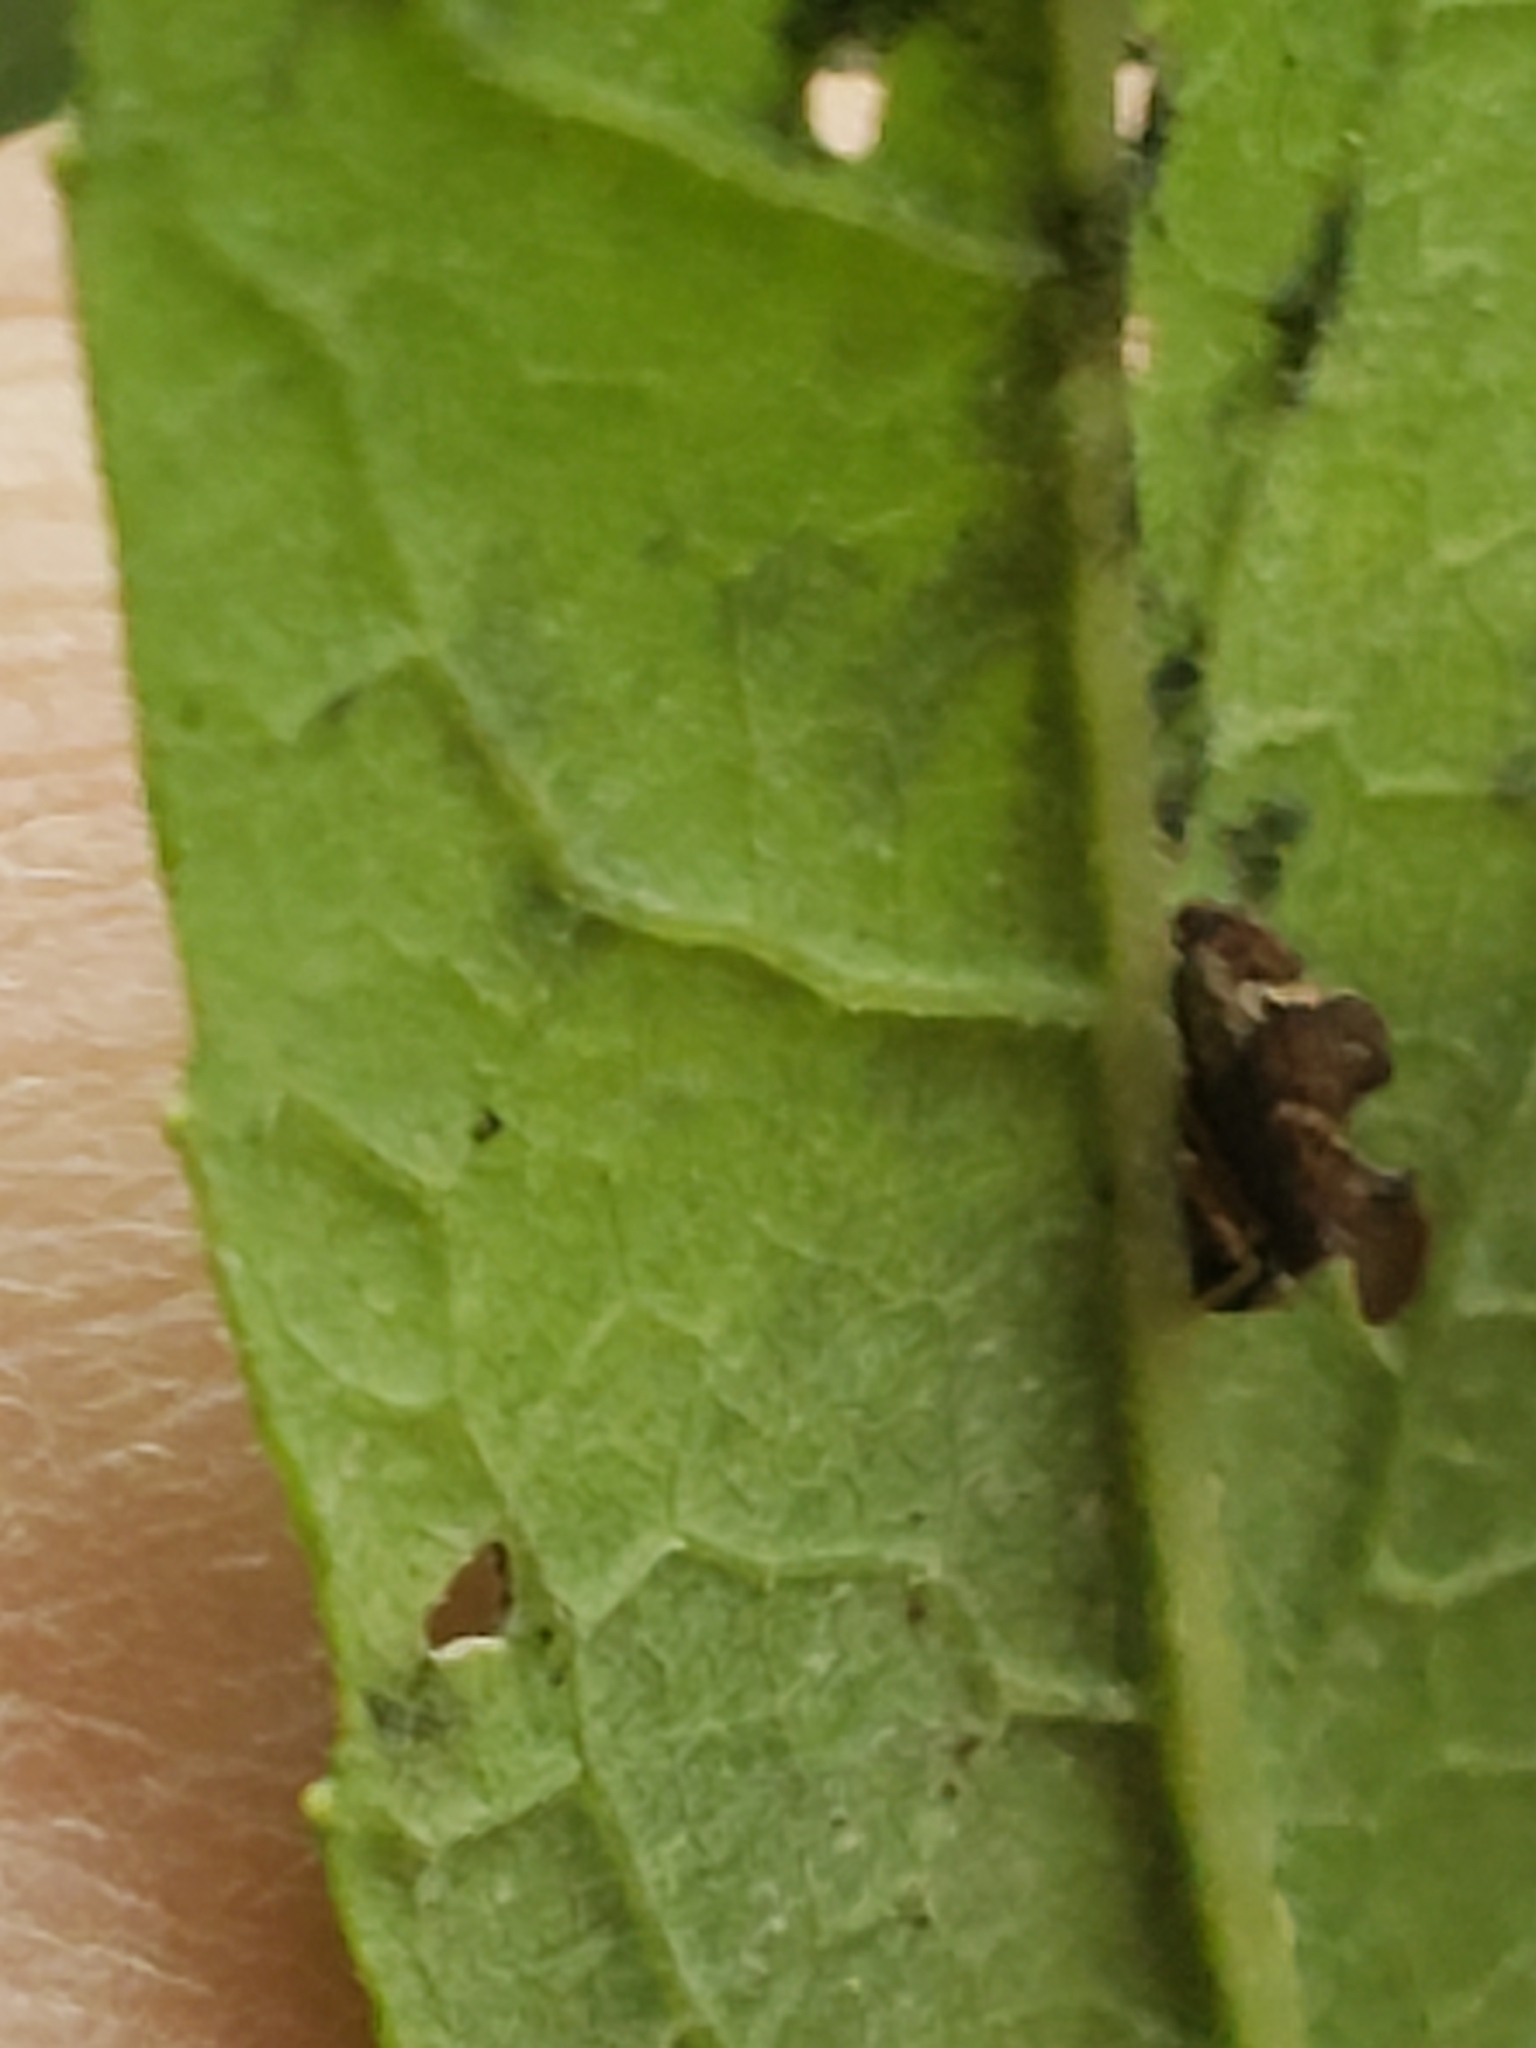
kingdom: Animalia
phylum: Arthropoda
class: Insecta
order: Hemiptera
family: Membracidae
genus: Entylia
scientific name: Entylia carinata
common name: Keeled treehopper
